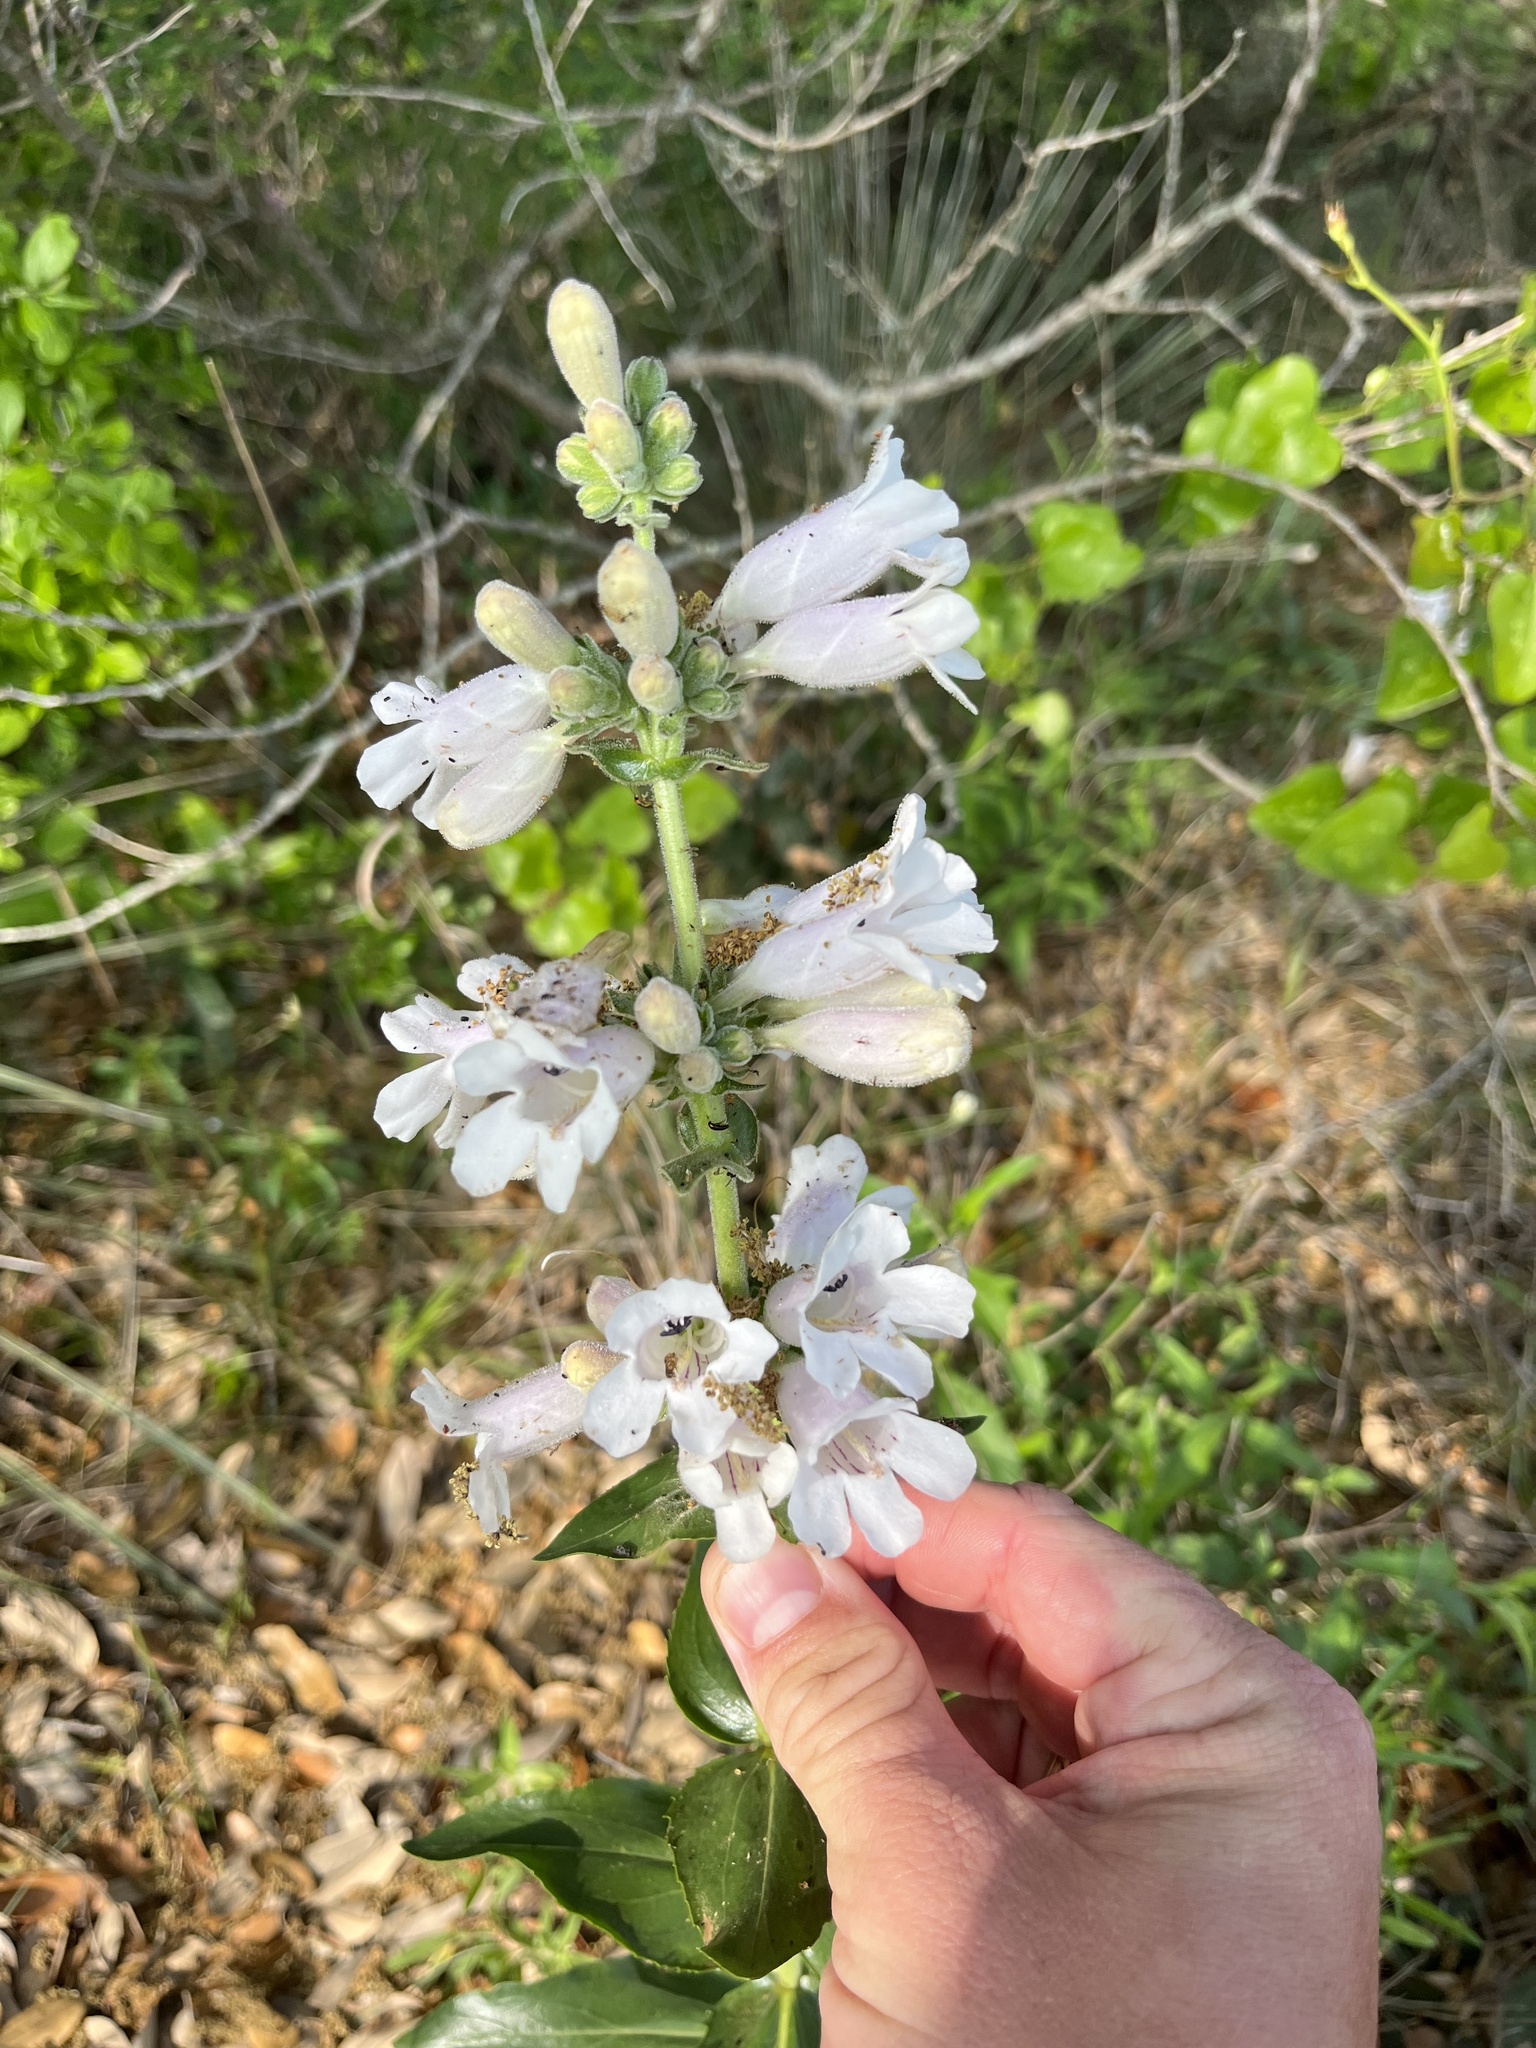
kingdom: Plantae
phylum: Tracheophyta
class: Magnoliopsida
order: Lamiales
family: Plantaginaceae
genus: Penstemon
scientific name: Penstemon cobaea
